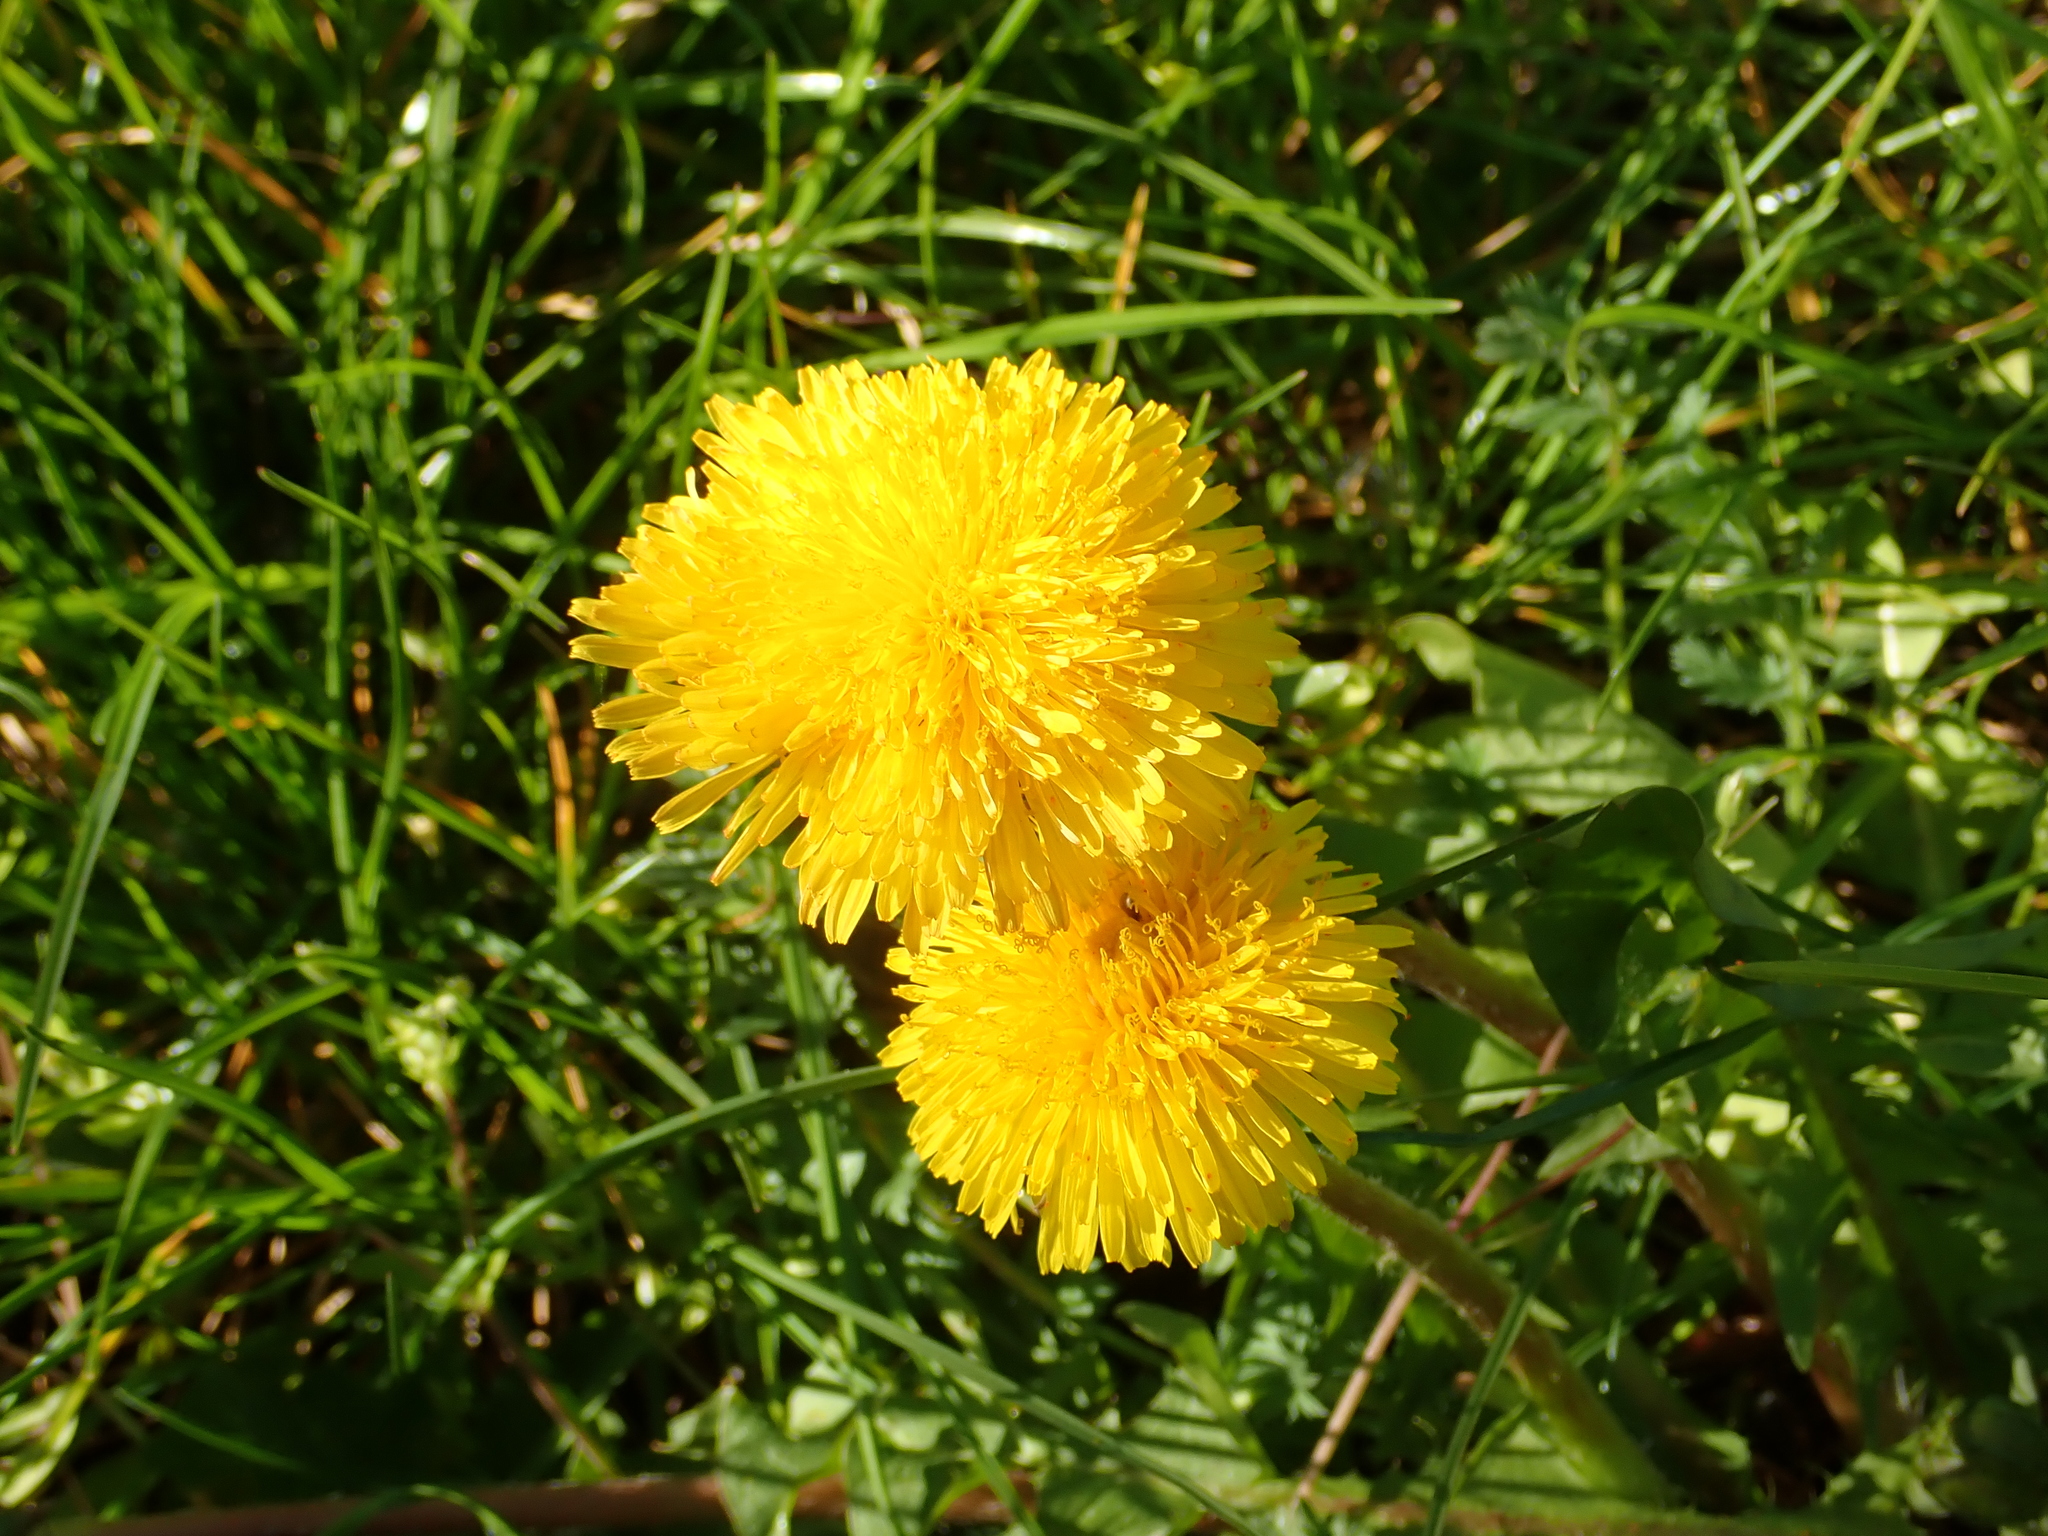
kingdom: Plantae
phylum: Tracheophyta
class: Magnoliopsida
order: Asterales
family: Asteraceae
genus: Taraxacum
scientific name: Taraxacum officinale
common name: Common dandelion
